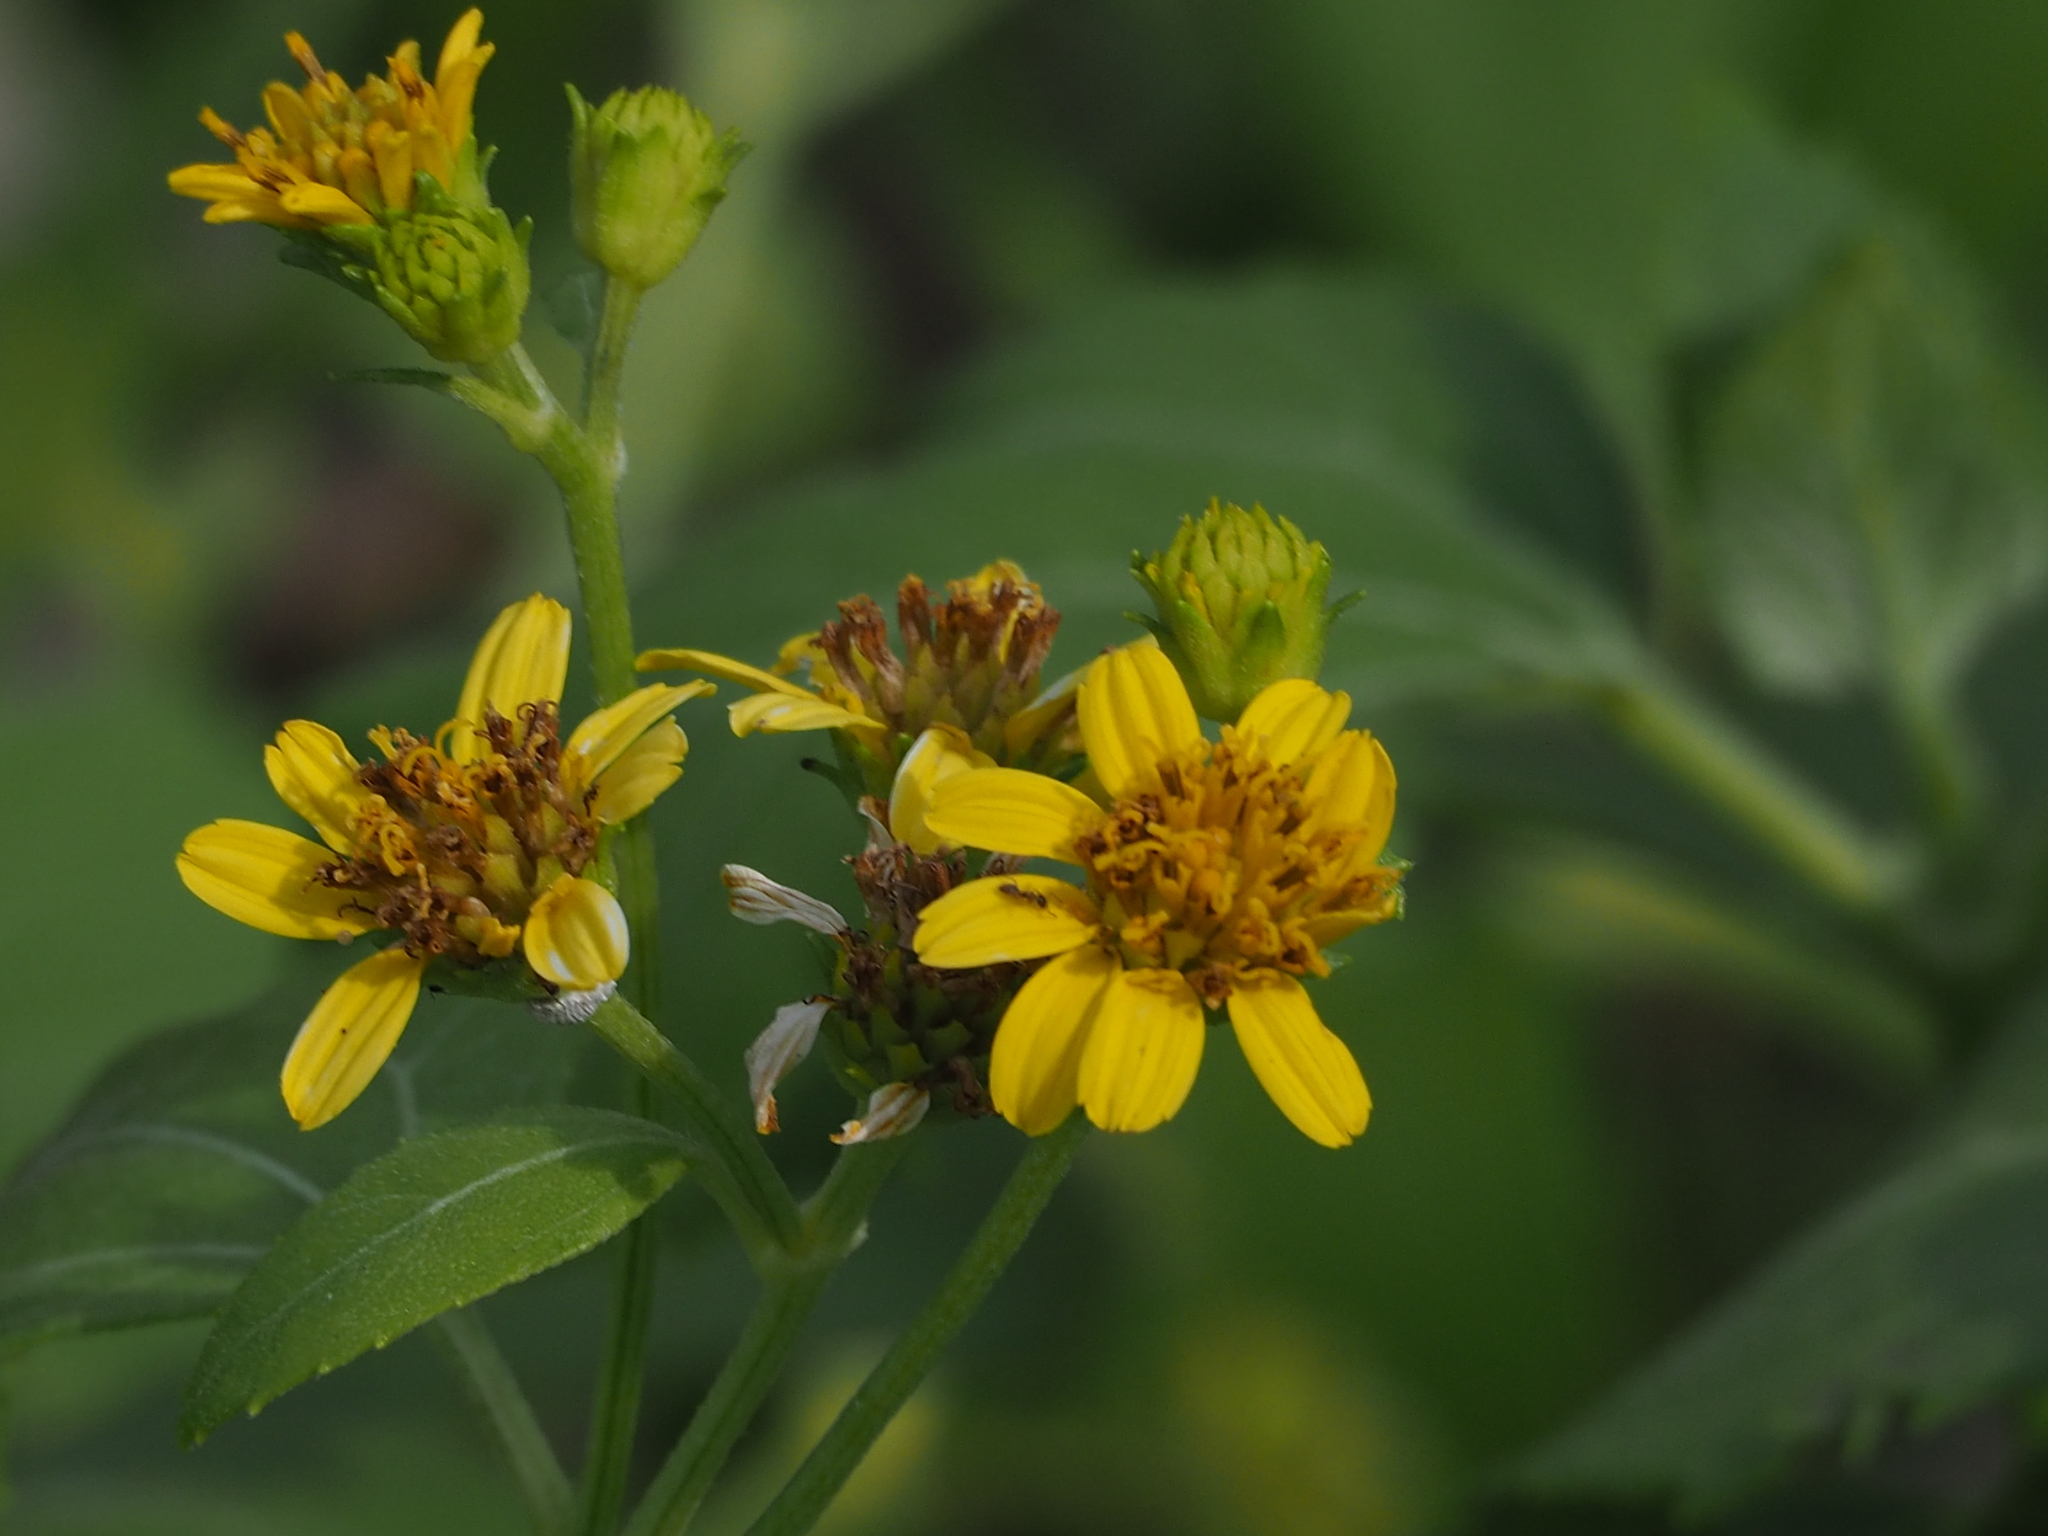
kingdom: Plantae
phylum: Tracheophyta
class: Magnoliopsida
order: Asterales
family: Asteraceae
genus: Wollastonia
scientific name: Wollastonia biflora
